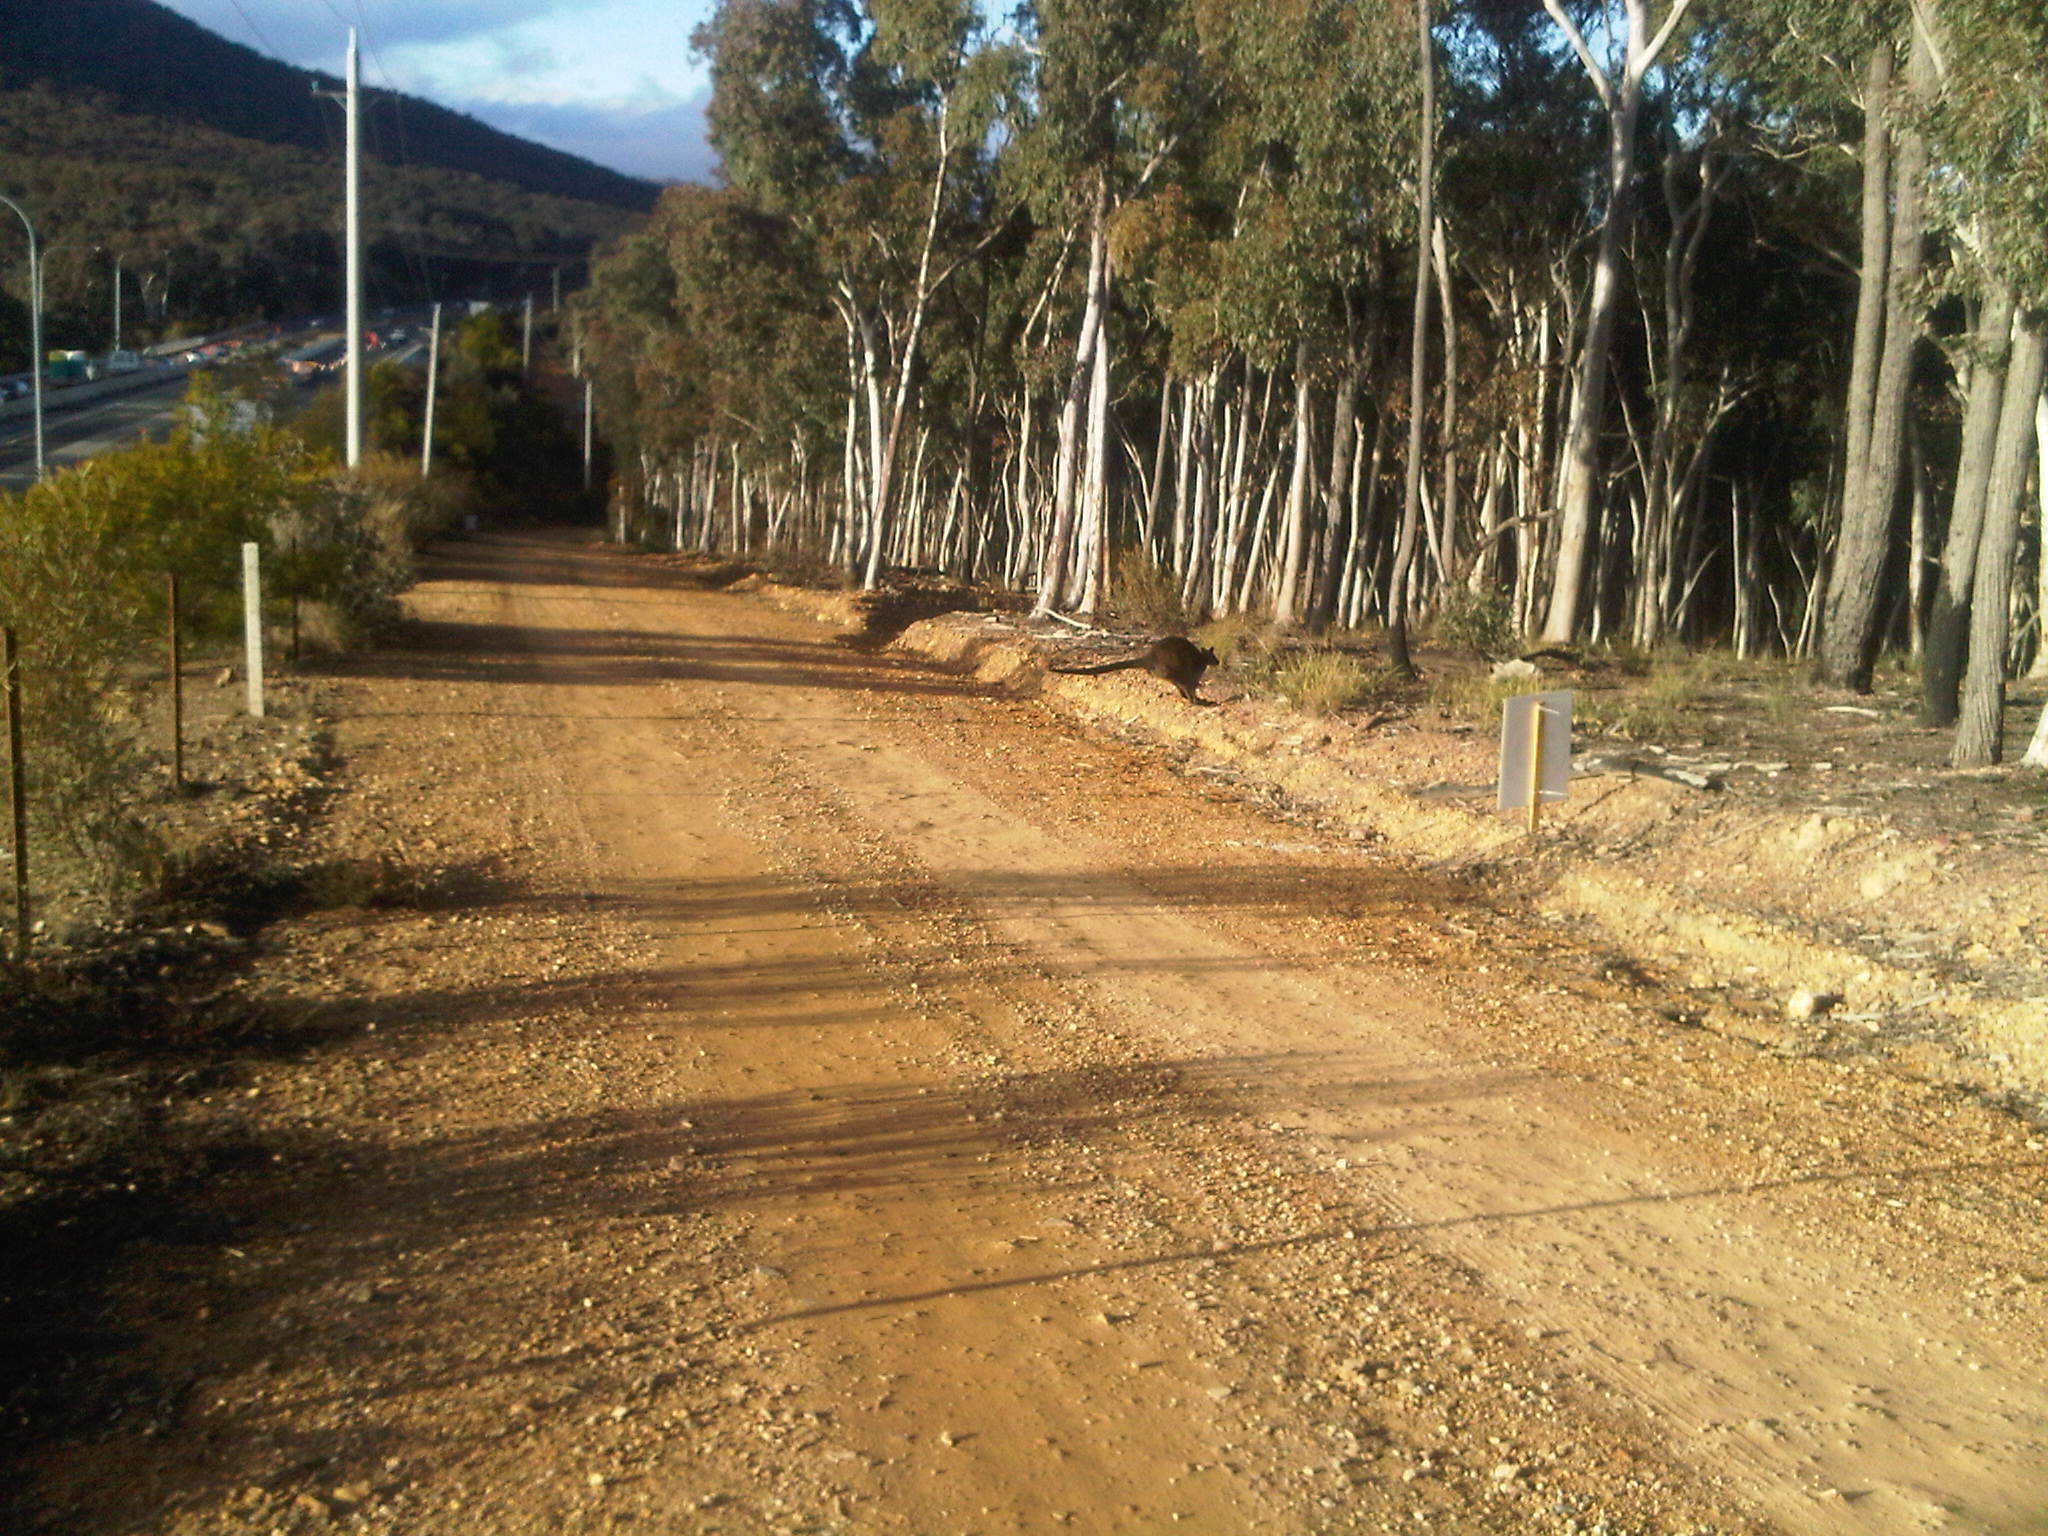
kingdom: Animalia
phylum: Chordata
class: Mammalia
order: Diprotodontia
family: Macropodidae
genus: Wallabia
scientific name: Wallabia bicolor
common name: Swamp wallaby
